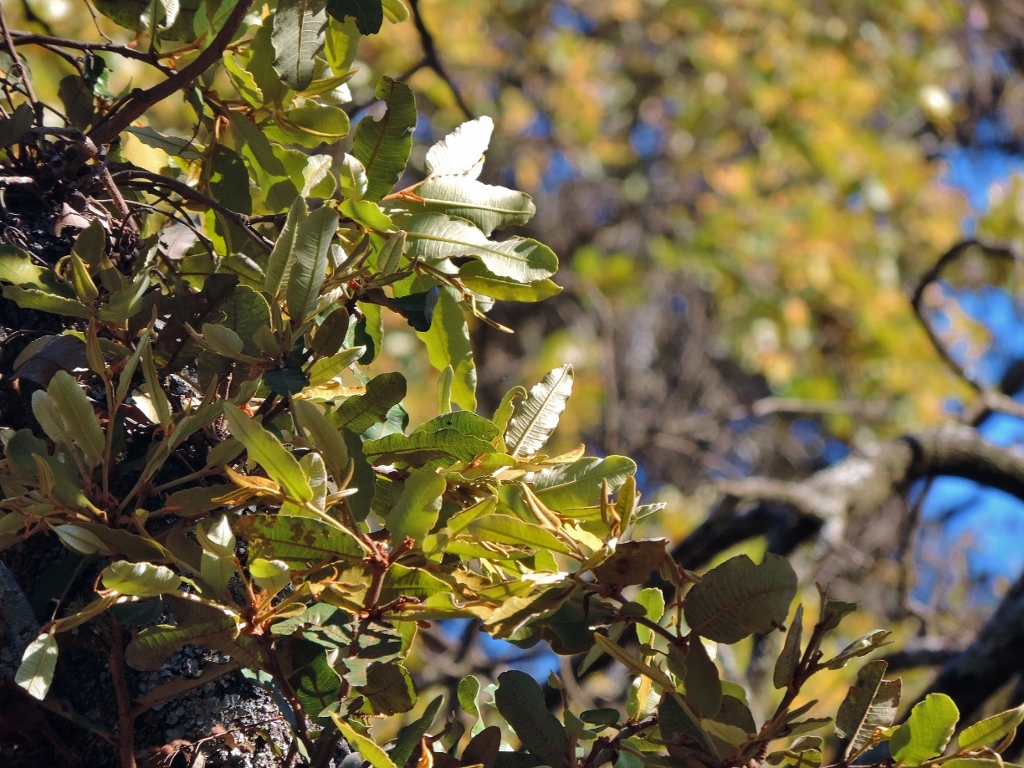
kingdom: Plantae
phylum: Tracheophyta
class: Magnoliopsida
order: Malpighiales
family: Chrysobalanaceae
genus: Parinari
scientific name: Parinari curatellifolia
